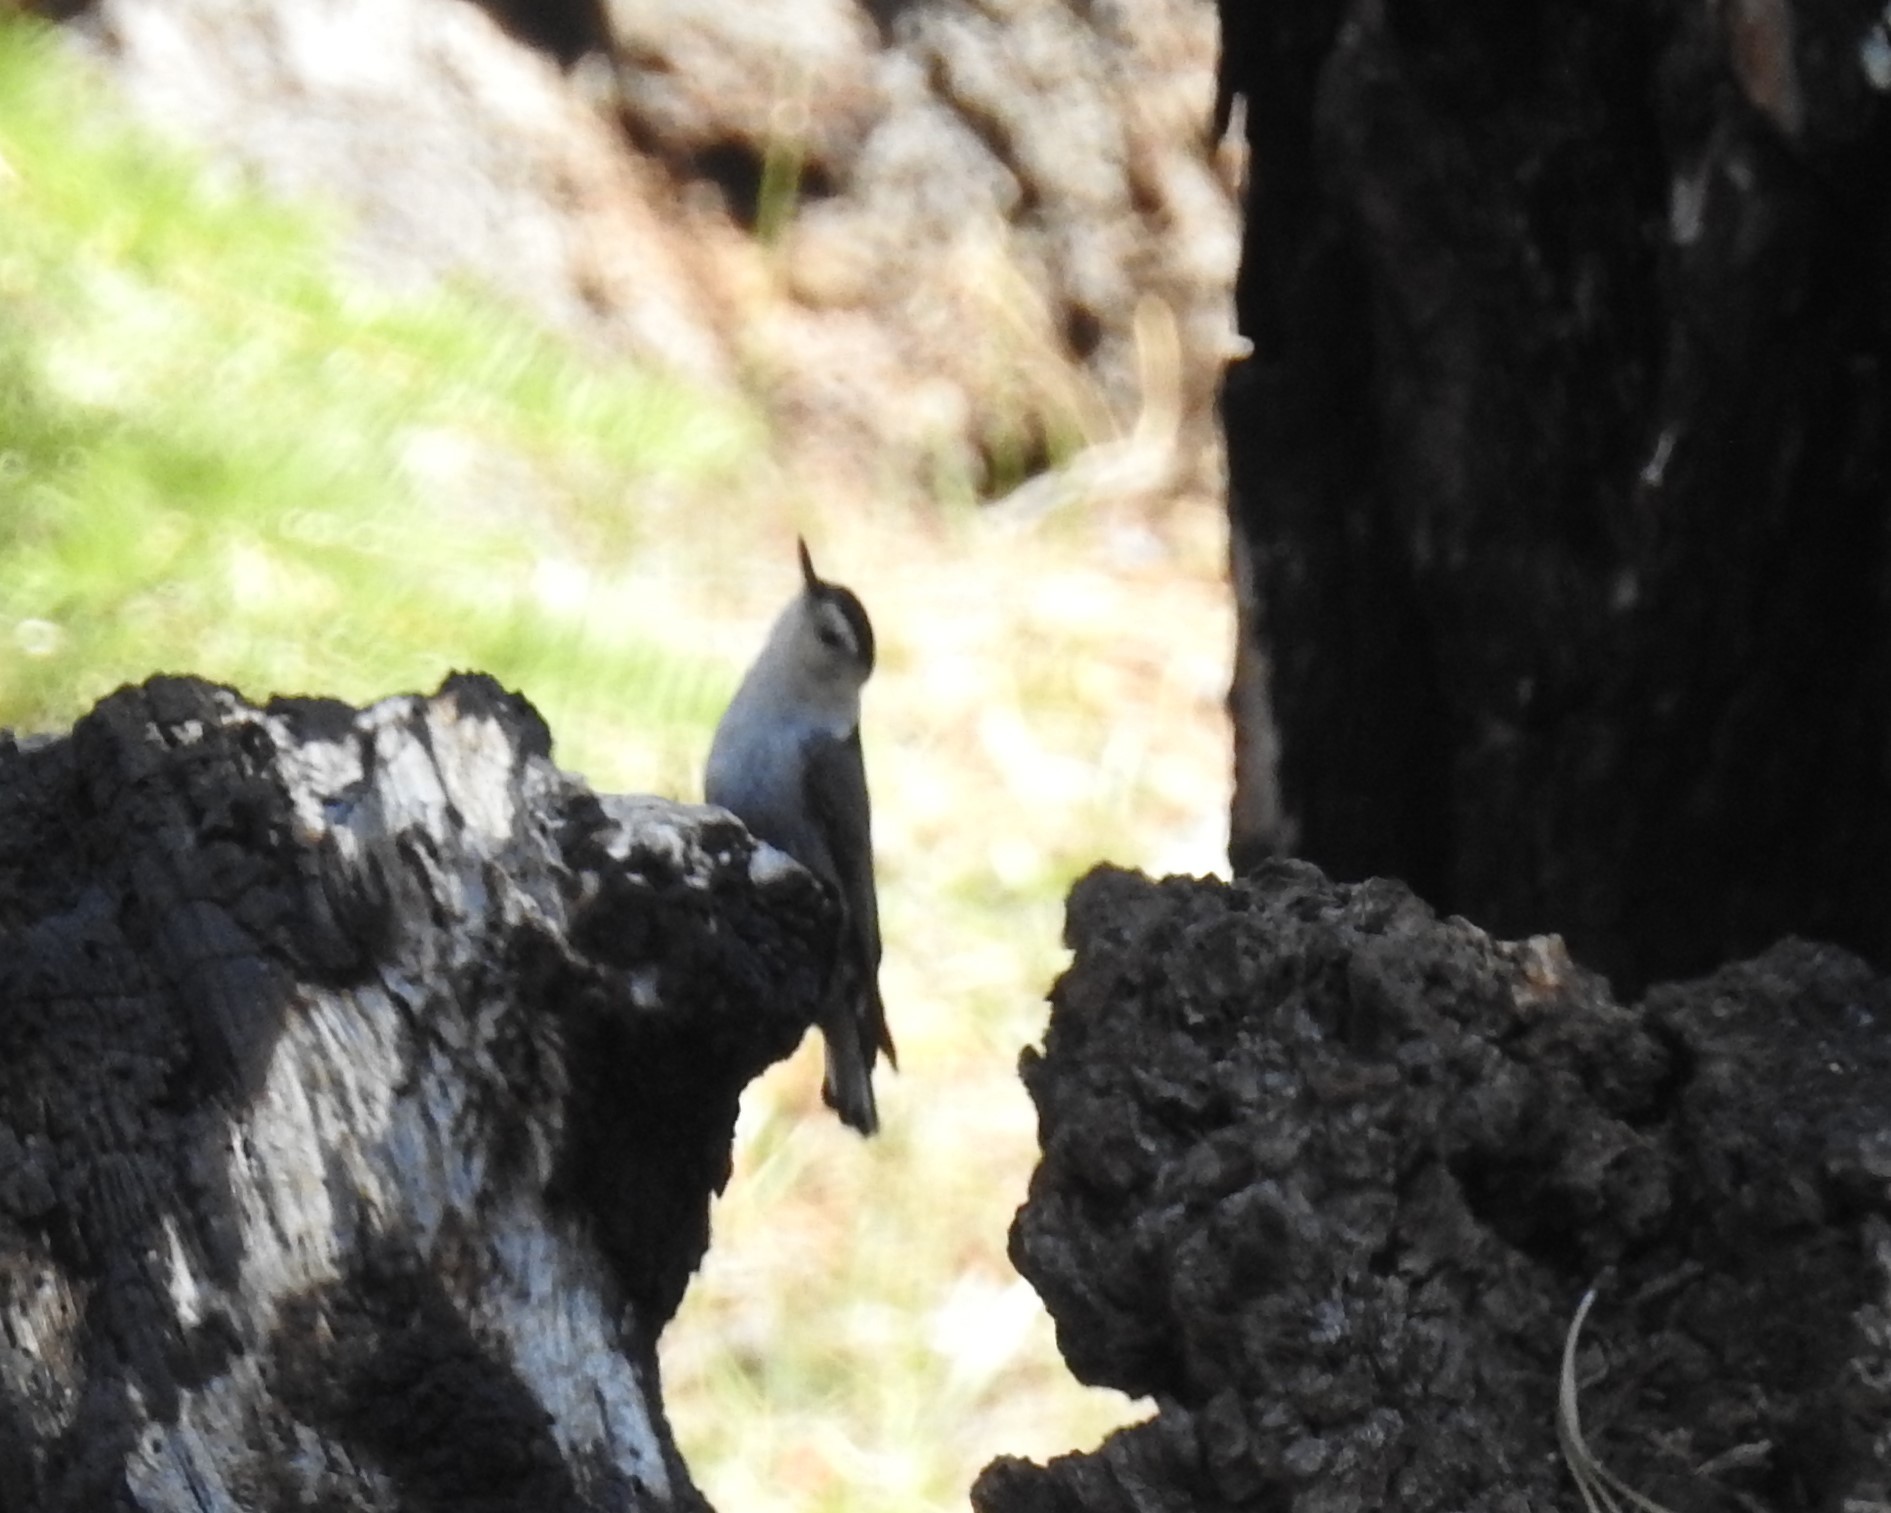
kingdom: Animalia
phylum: Chordata
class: Aves
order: Passeriformes
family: Sittidae
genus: Sitta
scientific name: Sitta carolinensis
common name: White-breasted nuthatch
